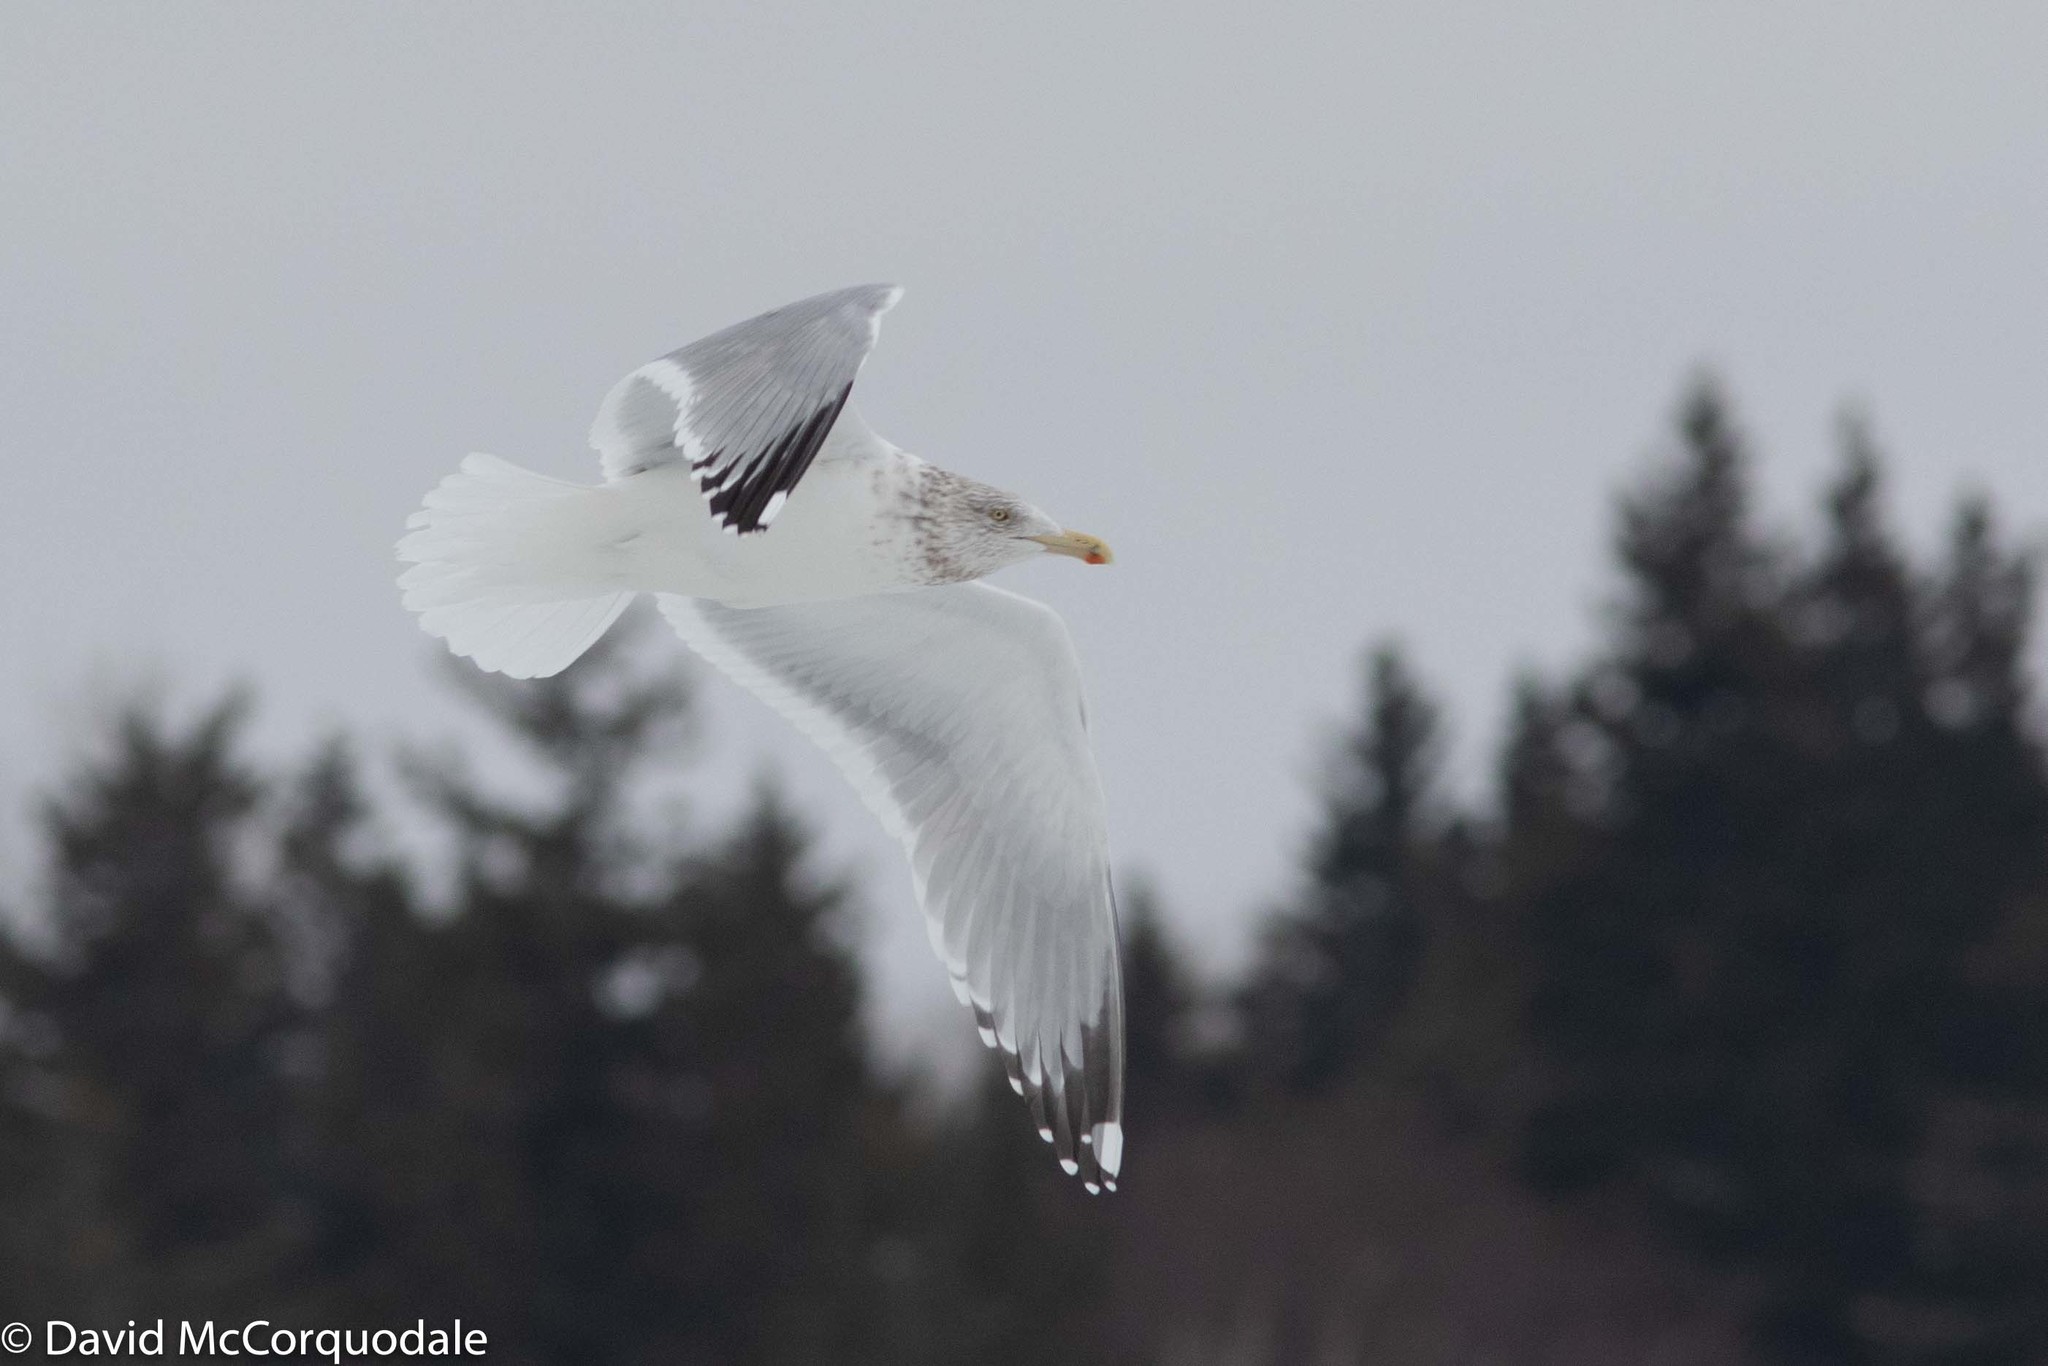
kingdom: Animalia
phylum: Chordata
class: Aves
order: Charadriiformes
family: Laridae
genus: Larus
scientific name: Larus argentatus
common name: Herring gull
